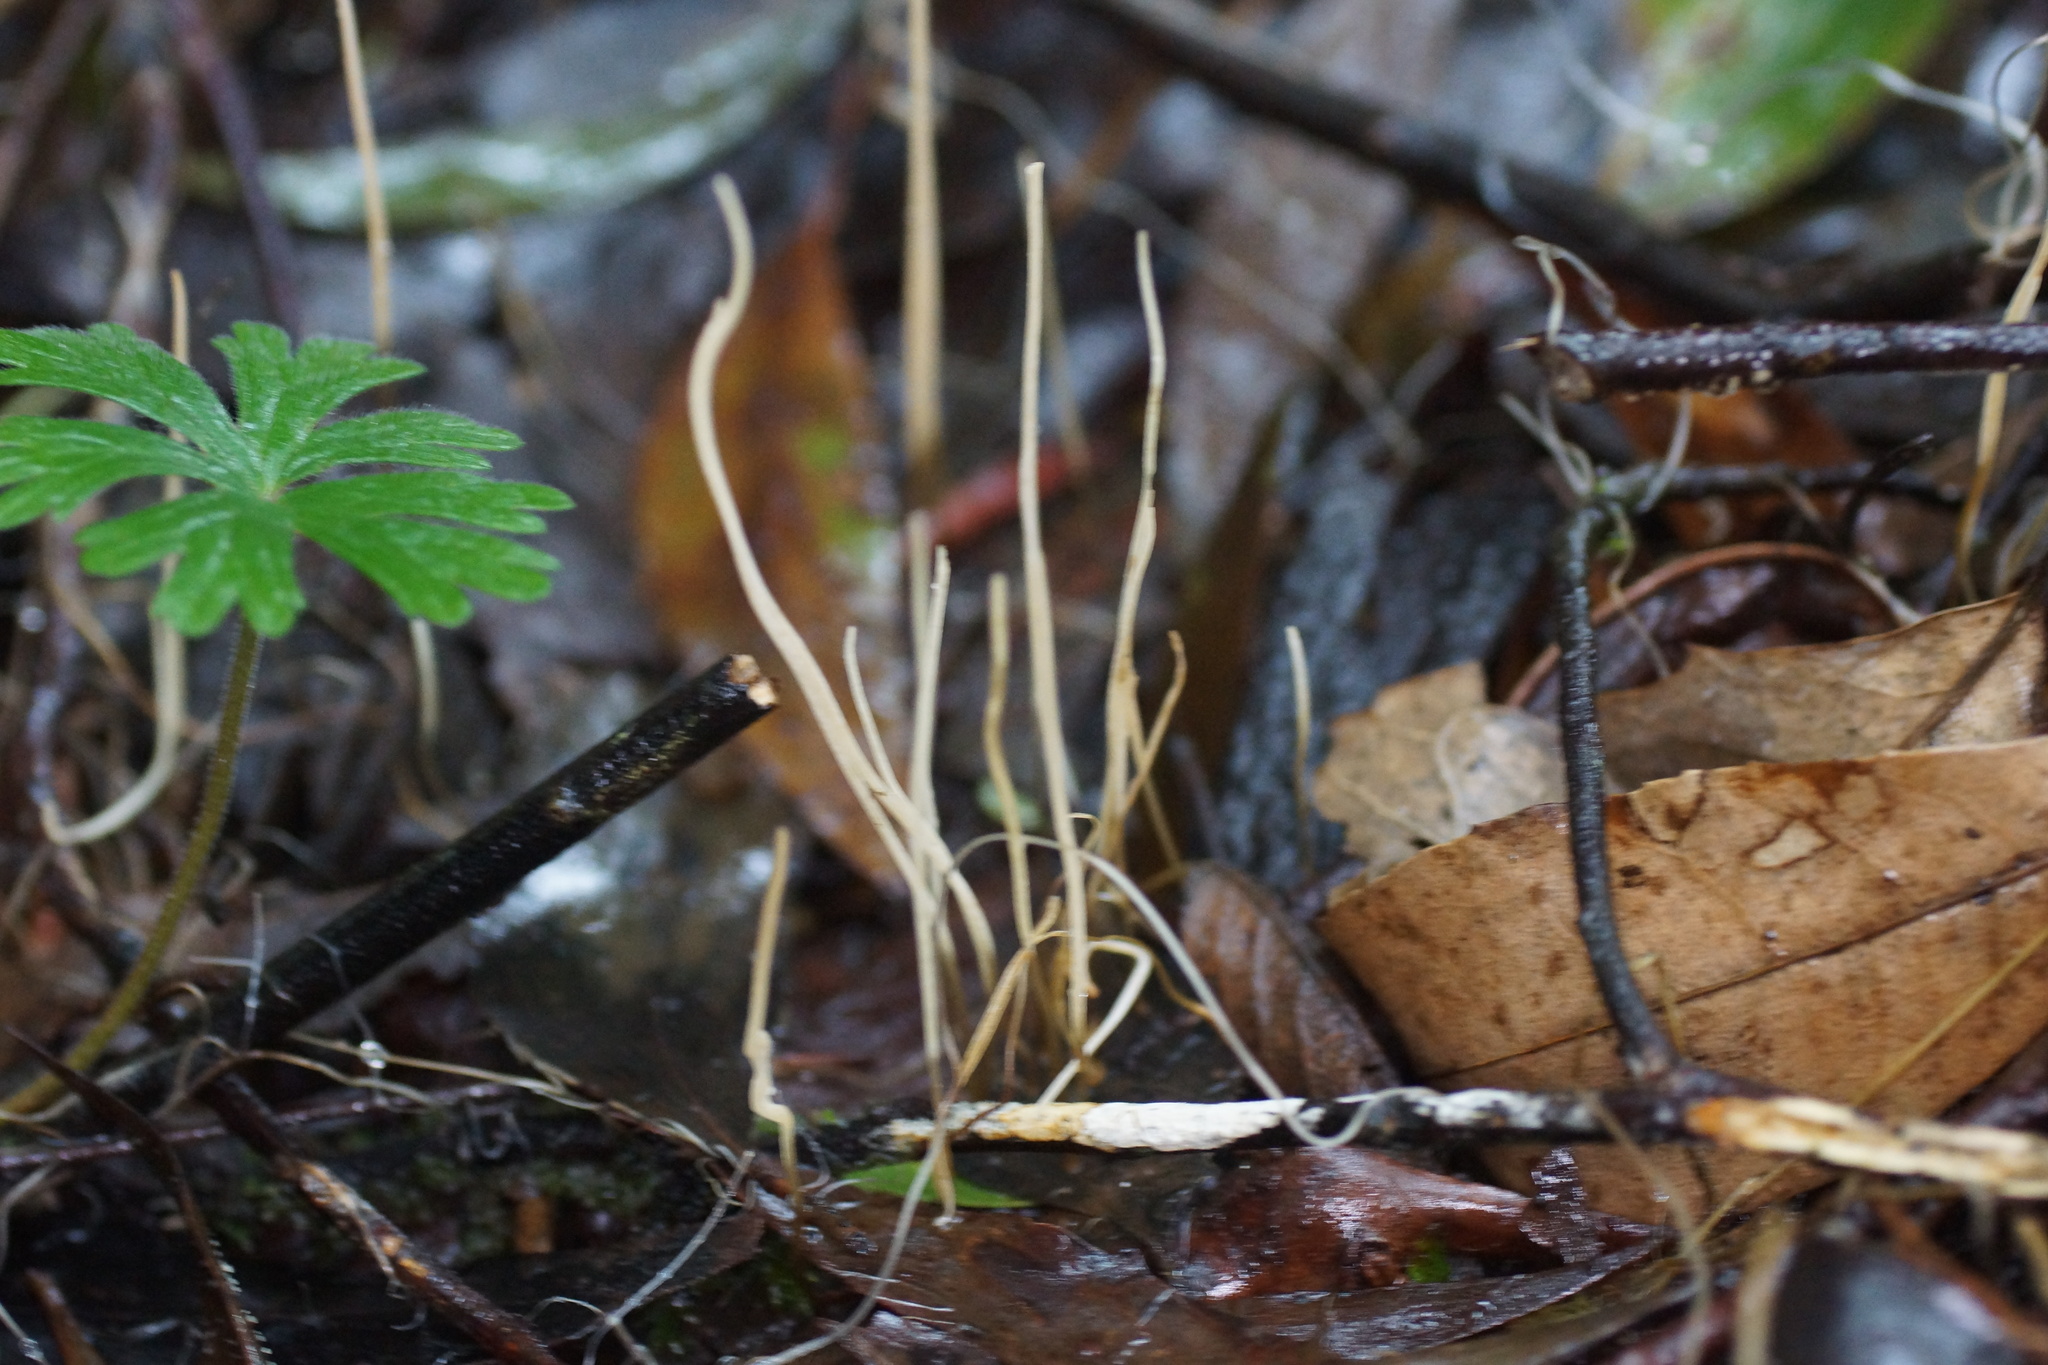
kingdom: Fungi
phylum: Basidiomycota
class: Agaricomycetes
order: Agaricales
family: Typhulaceae
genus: Typhula
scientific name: Typhula juncea
